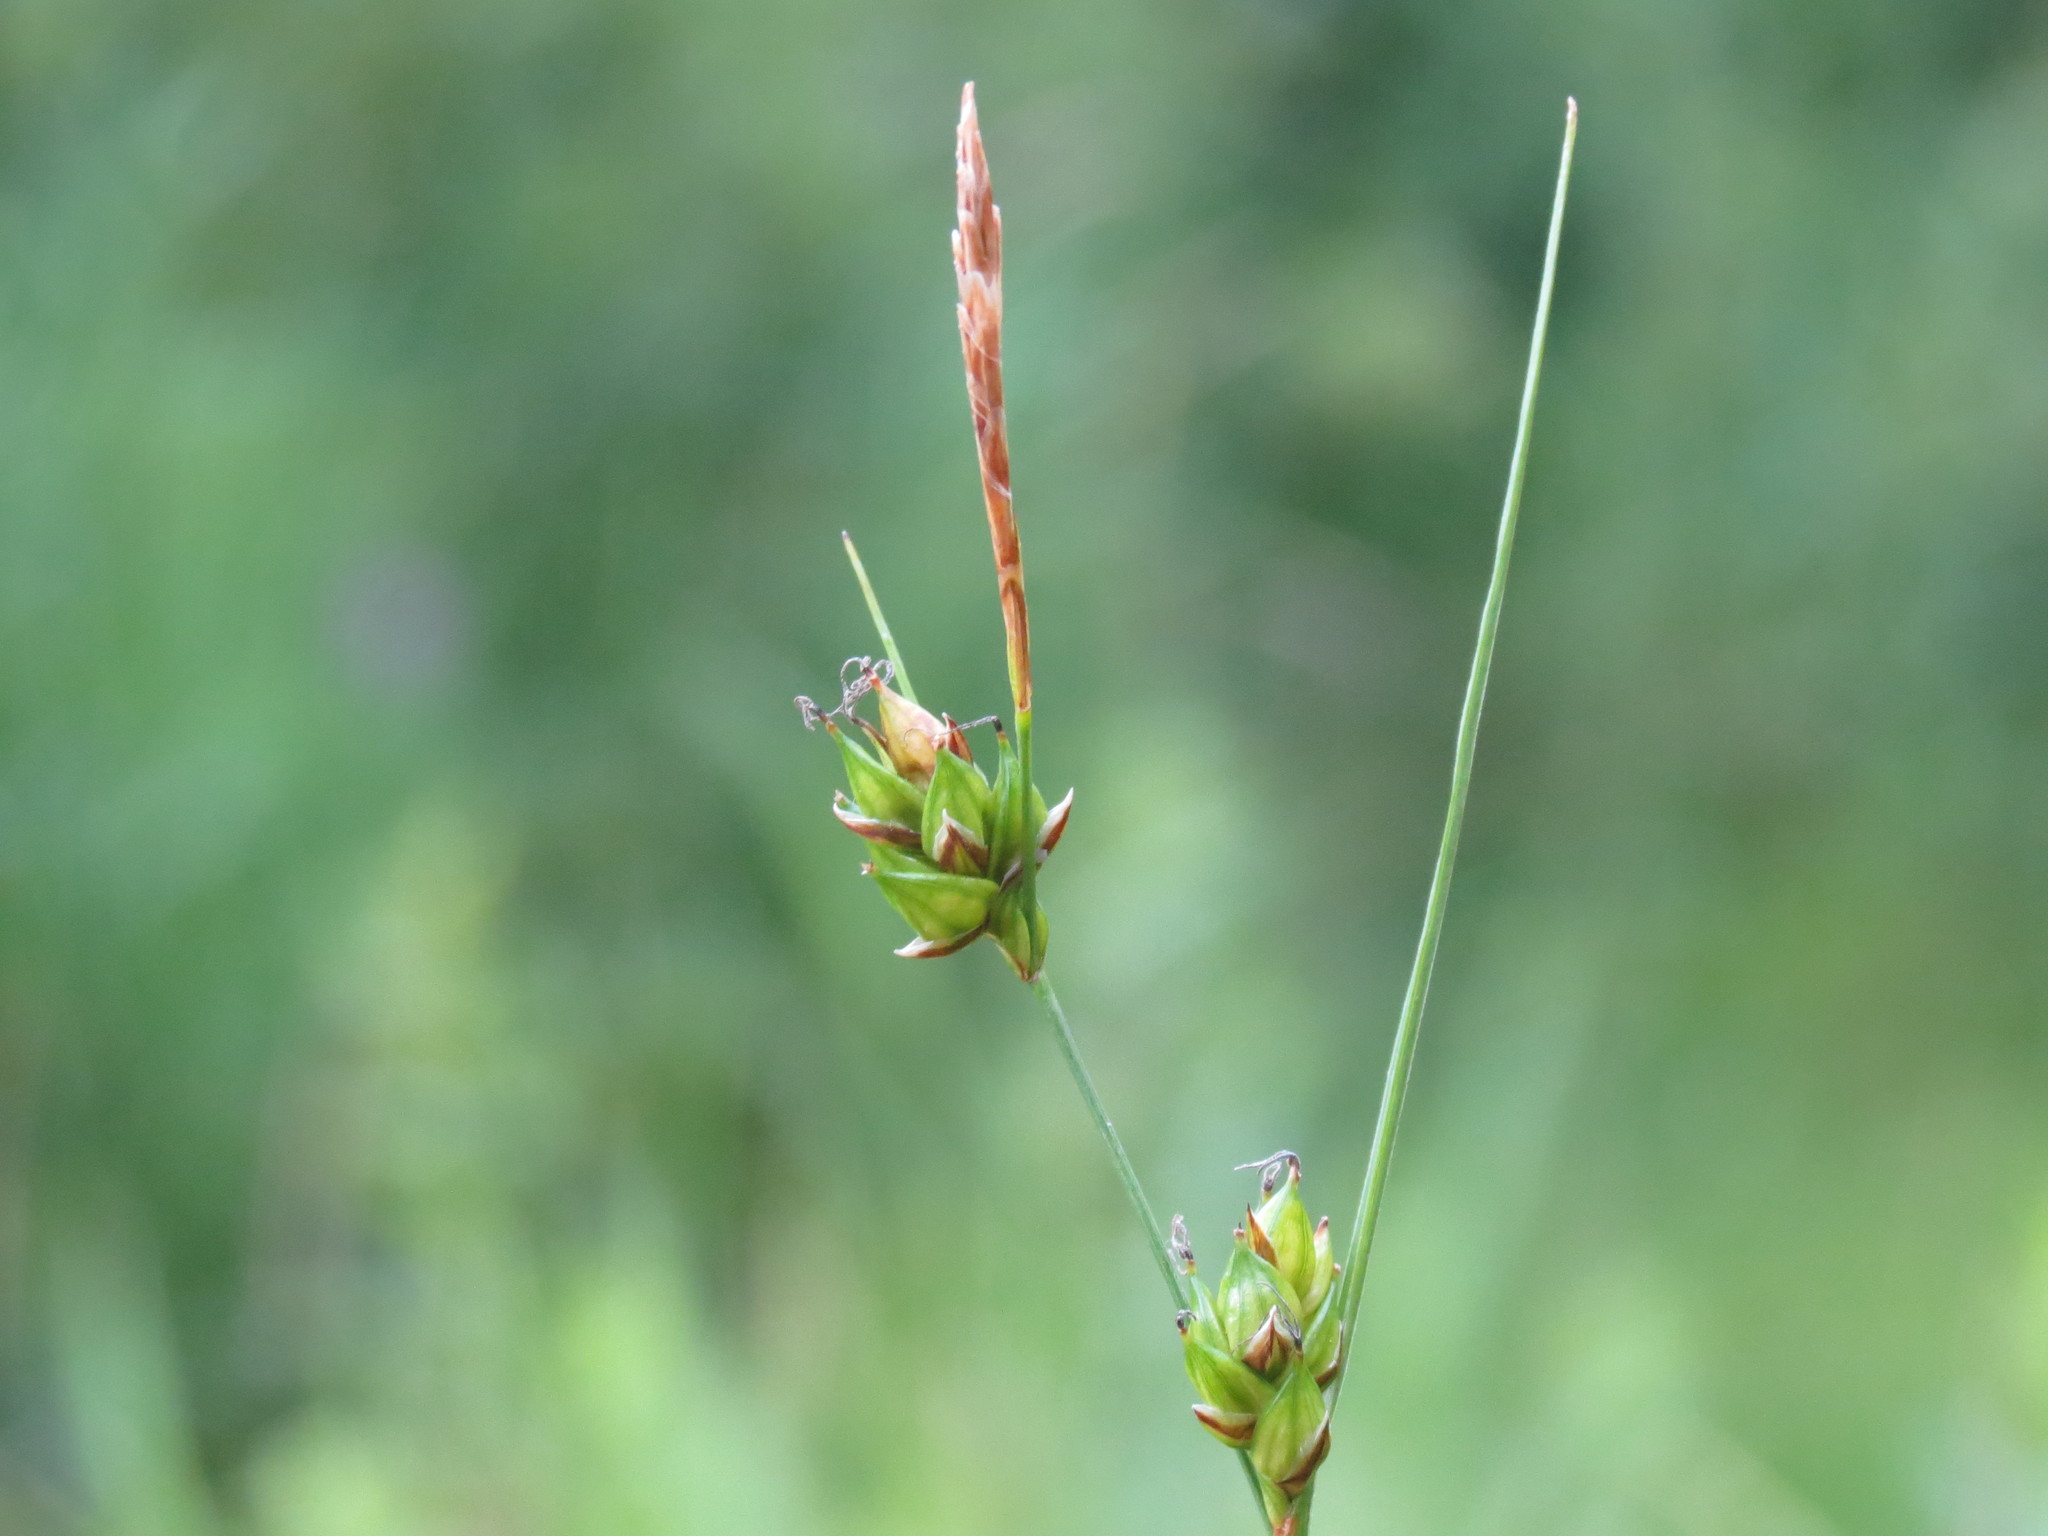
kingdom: Plantae
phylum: Tracheophyta
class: Liliopsida
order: Poales
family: Cyperaceae
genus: Carex
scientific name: Carex oligosperma
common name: Few-seed sedge
